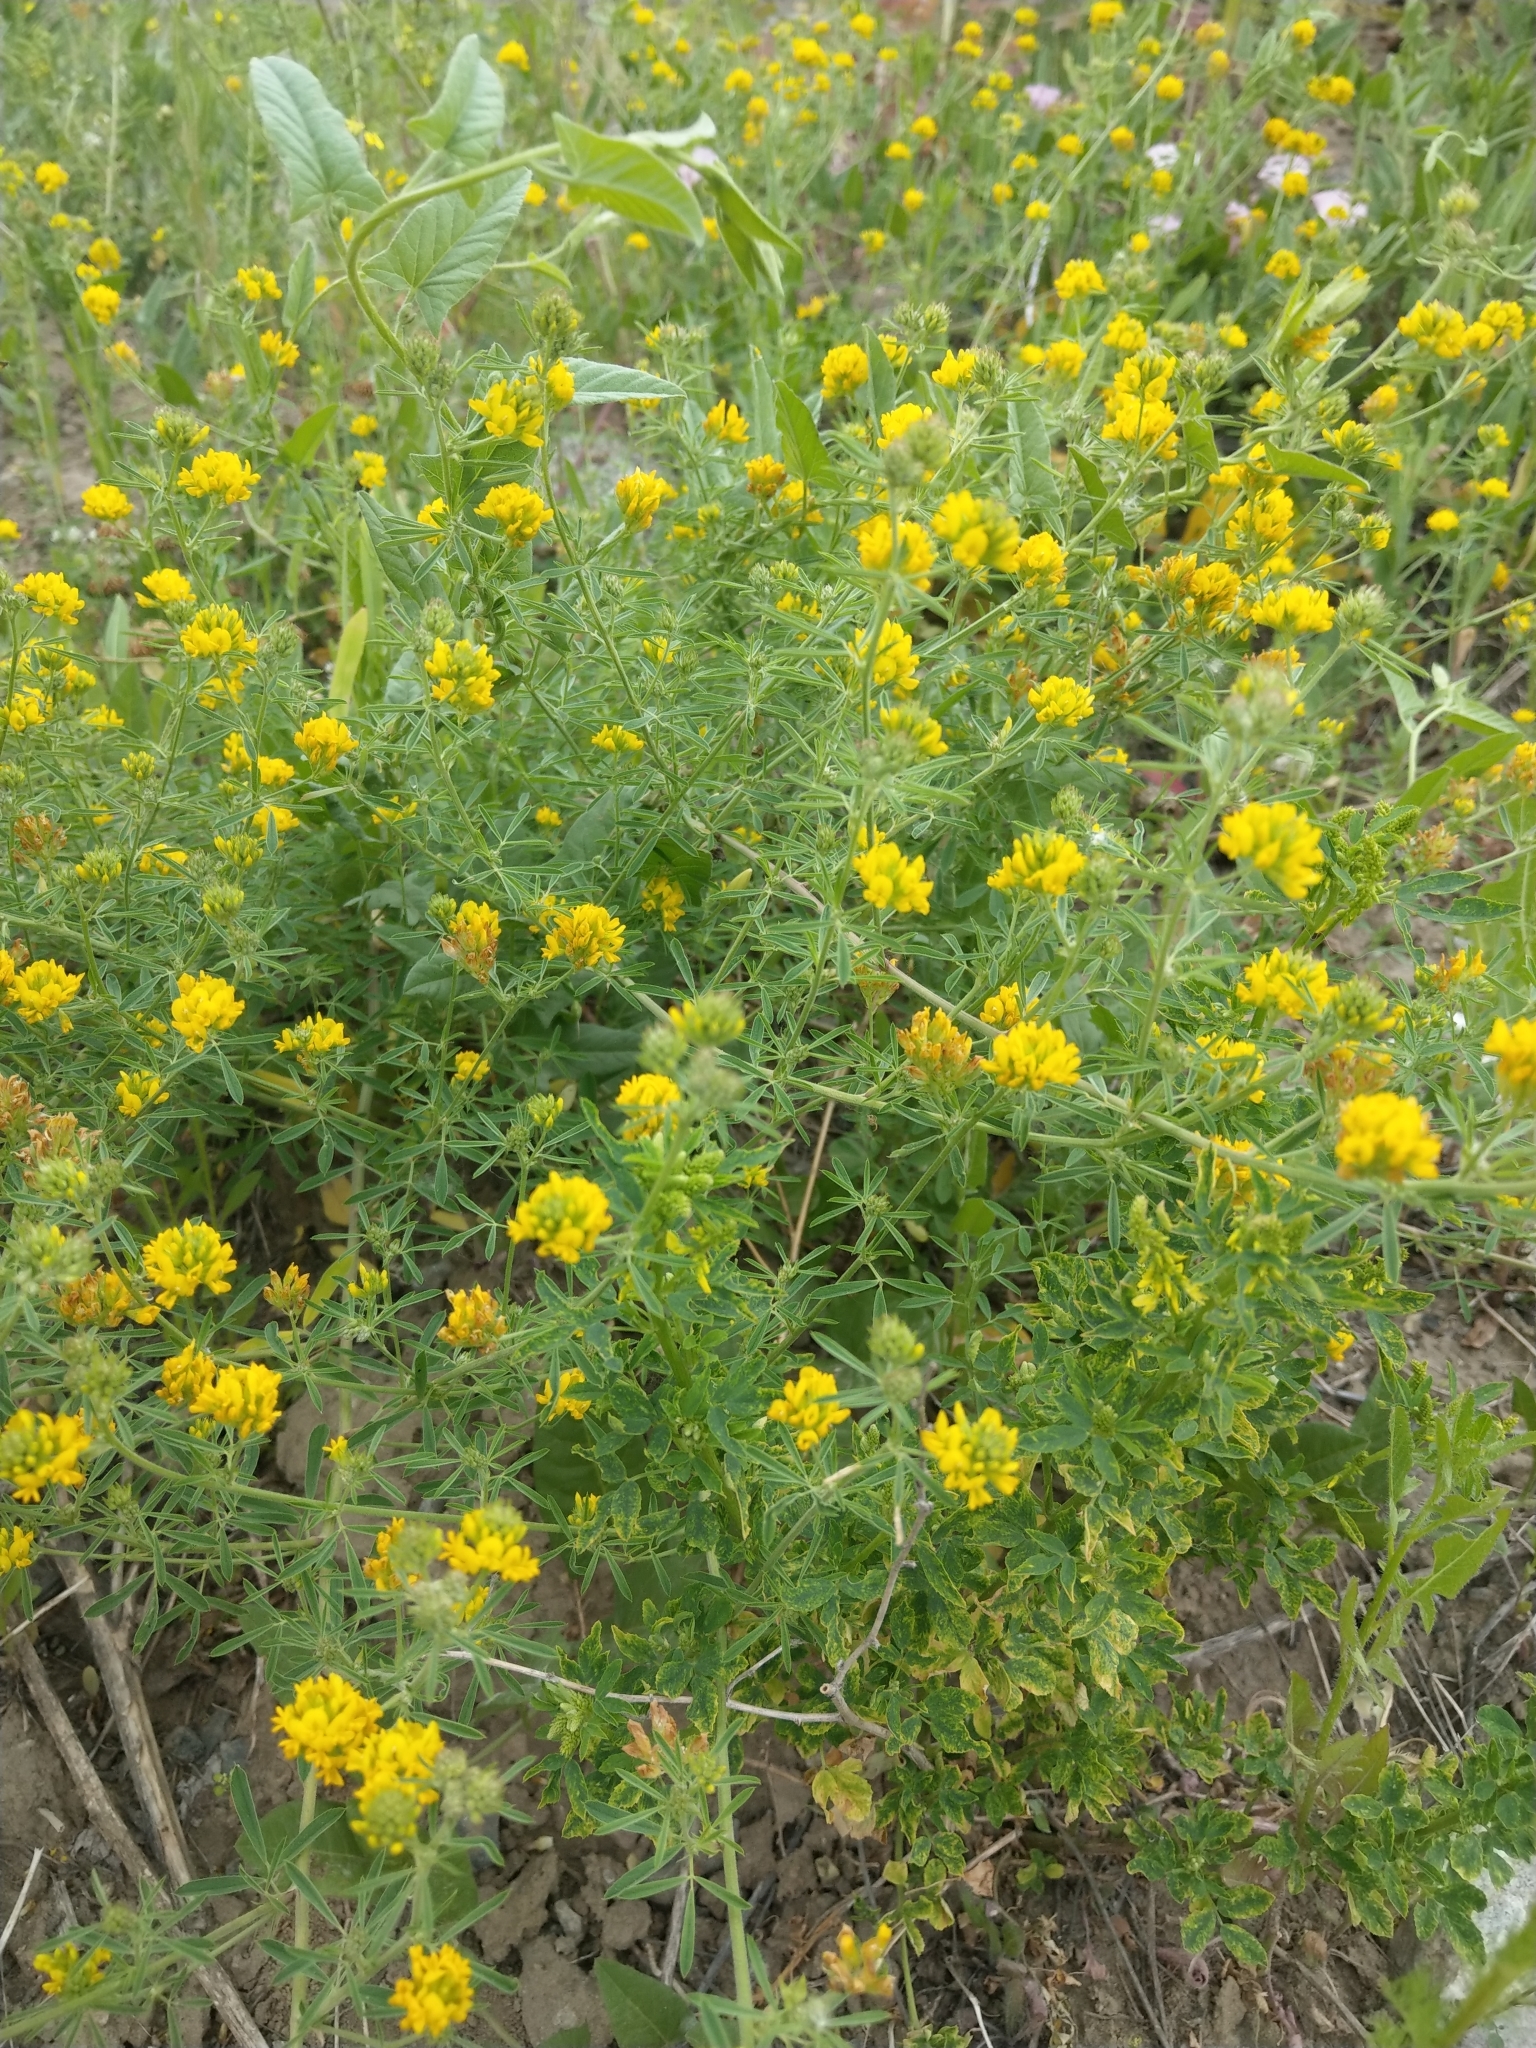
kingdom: Plantae
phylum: Tracheophyta
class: Magnoliopsida
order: Fabales
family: Fabaceae
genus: Medicago
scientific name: Medicago falcata
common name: Sickle medick
